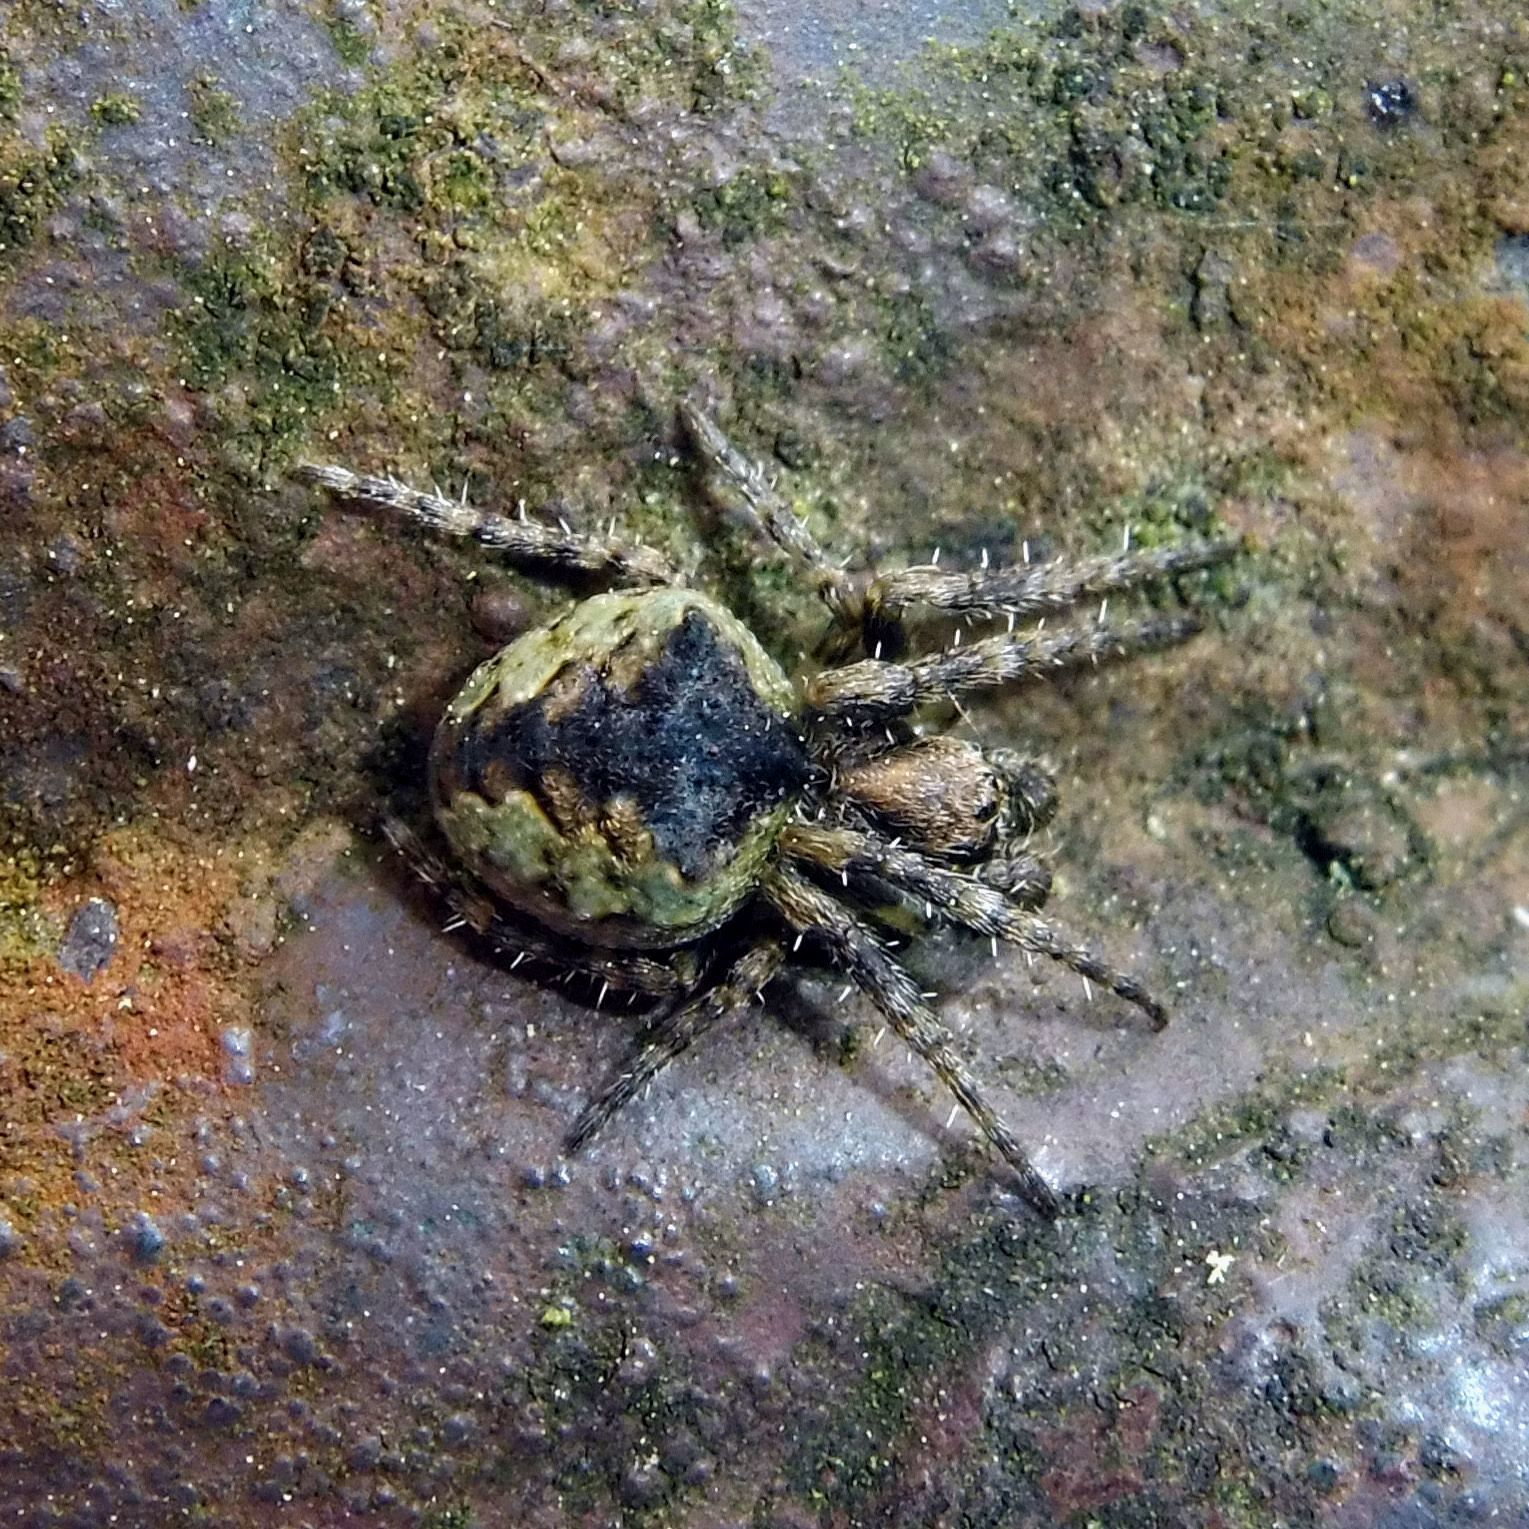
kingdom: Animalia
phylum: Arthropoda
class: Arachnida
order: Araneae
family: Araneidae
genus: Gibbaranea
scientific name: Gibbaranea gibbosa
